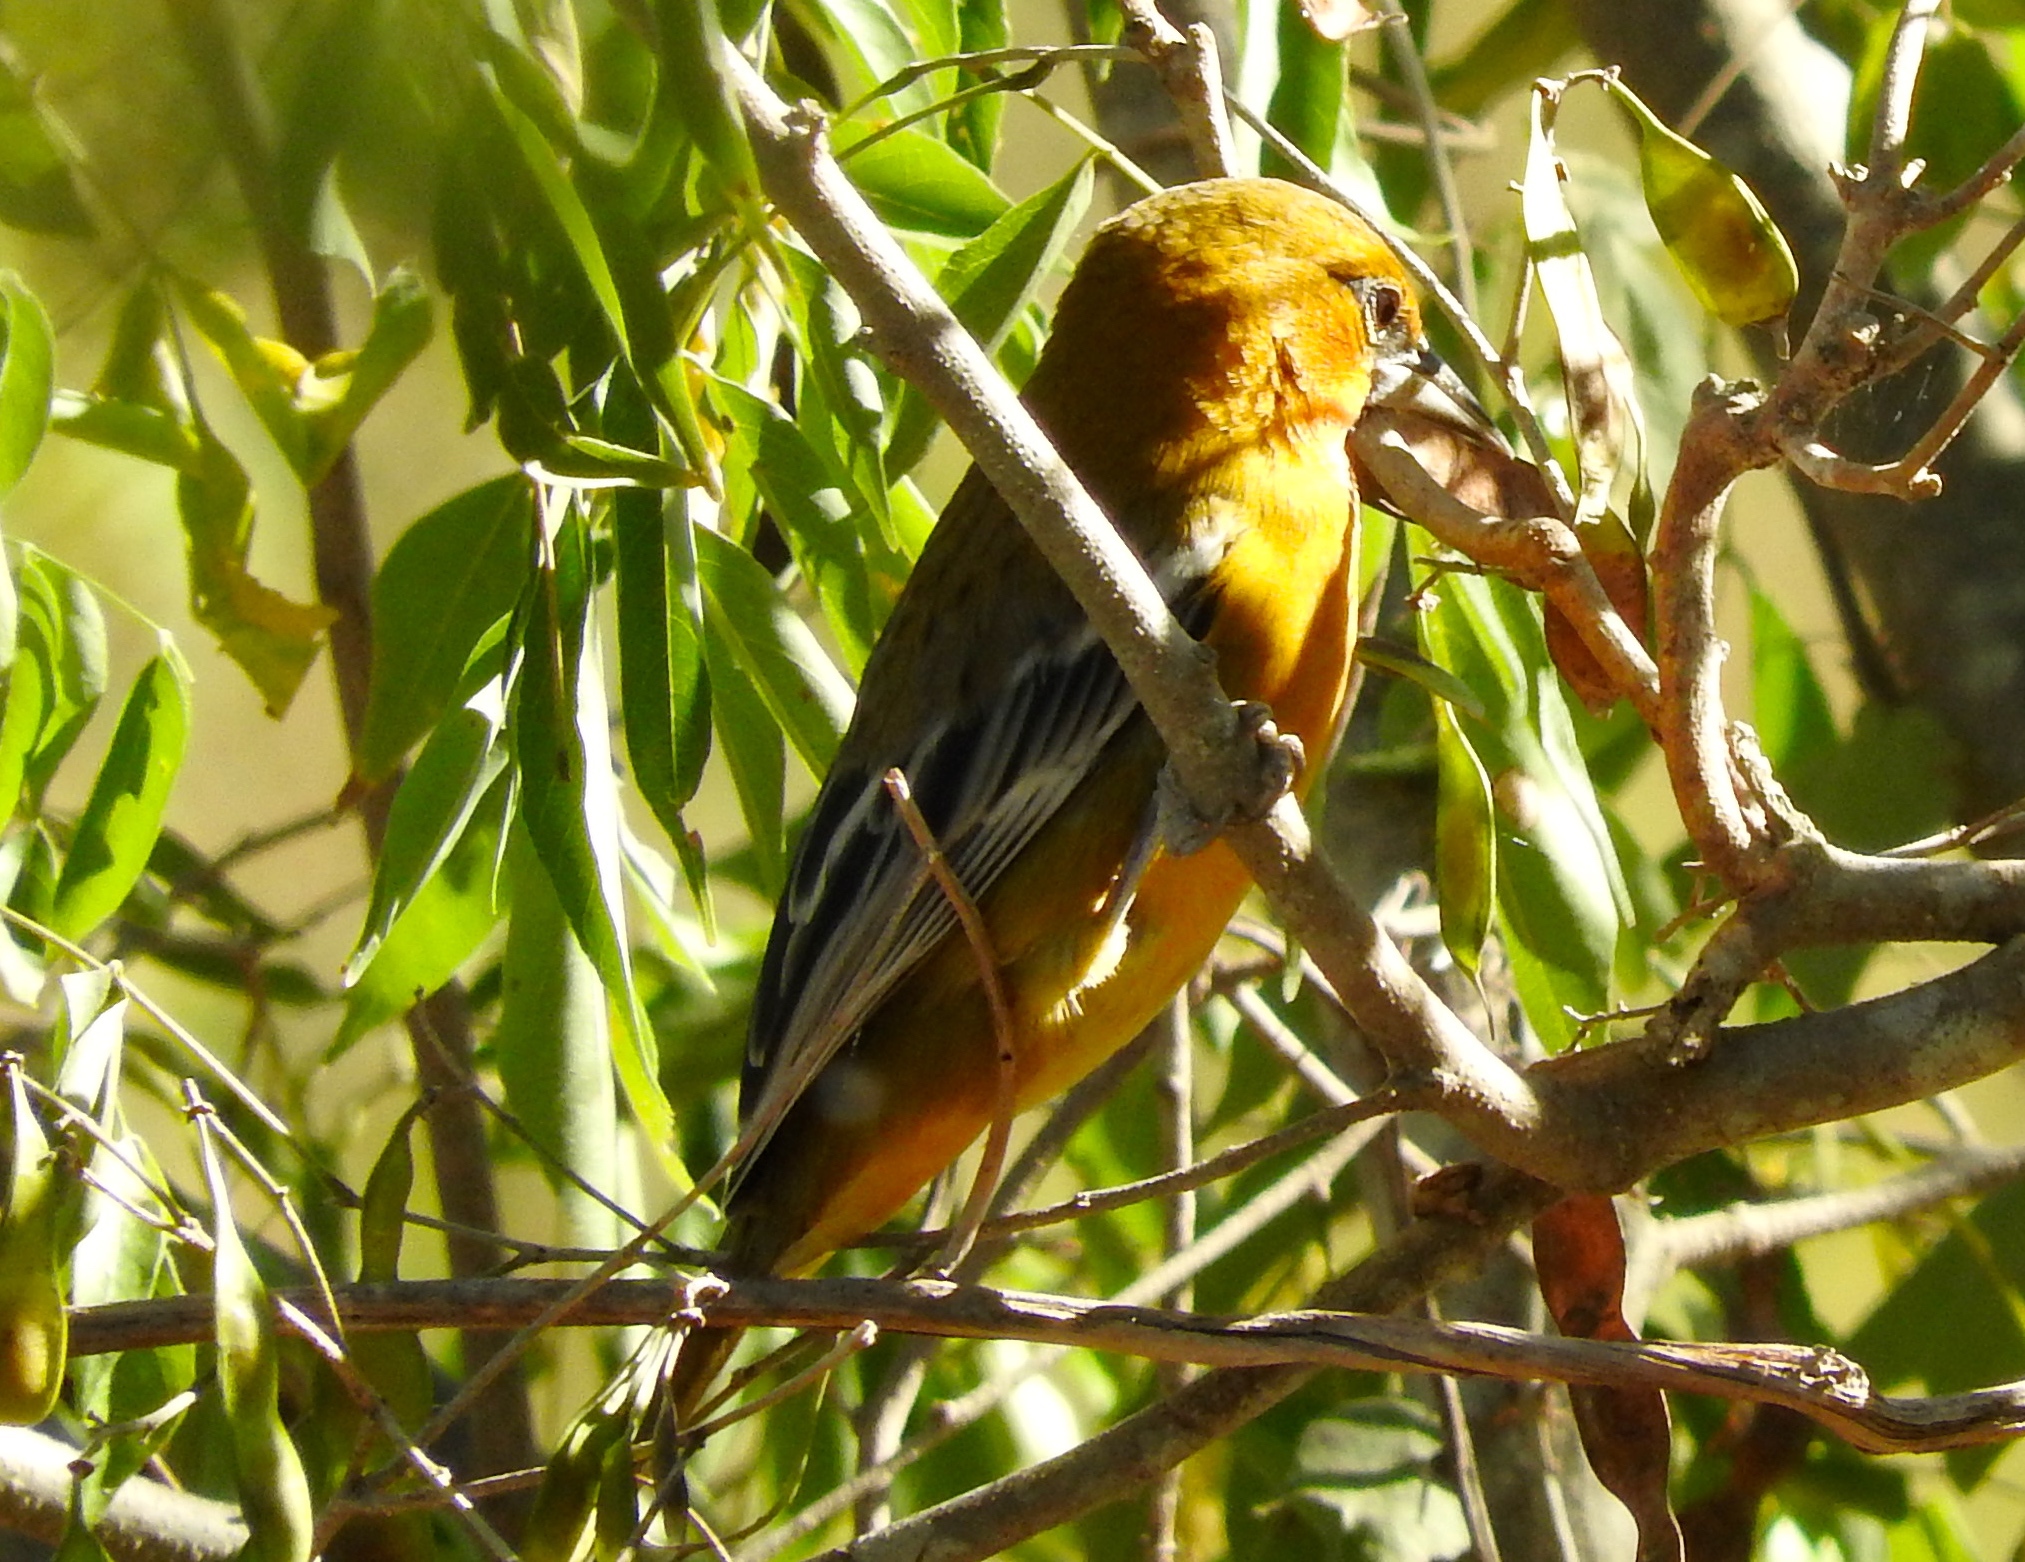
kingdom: Animalia
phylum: Chordata
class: Aves
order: Passeriformes
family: Icteridae
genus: Icterus
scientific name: Icterus pustulatus
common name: Streak-backed oriole
